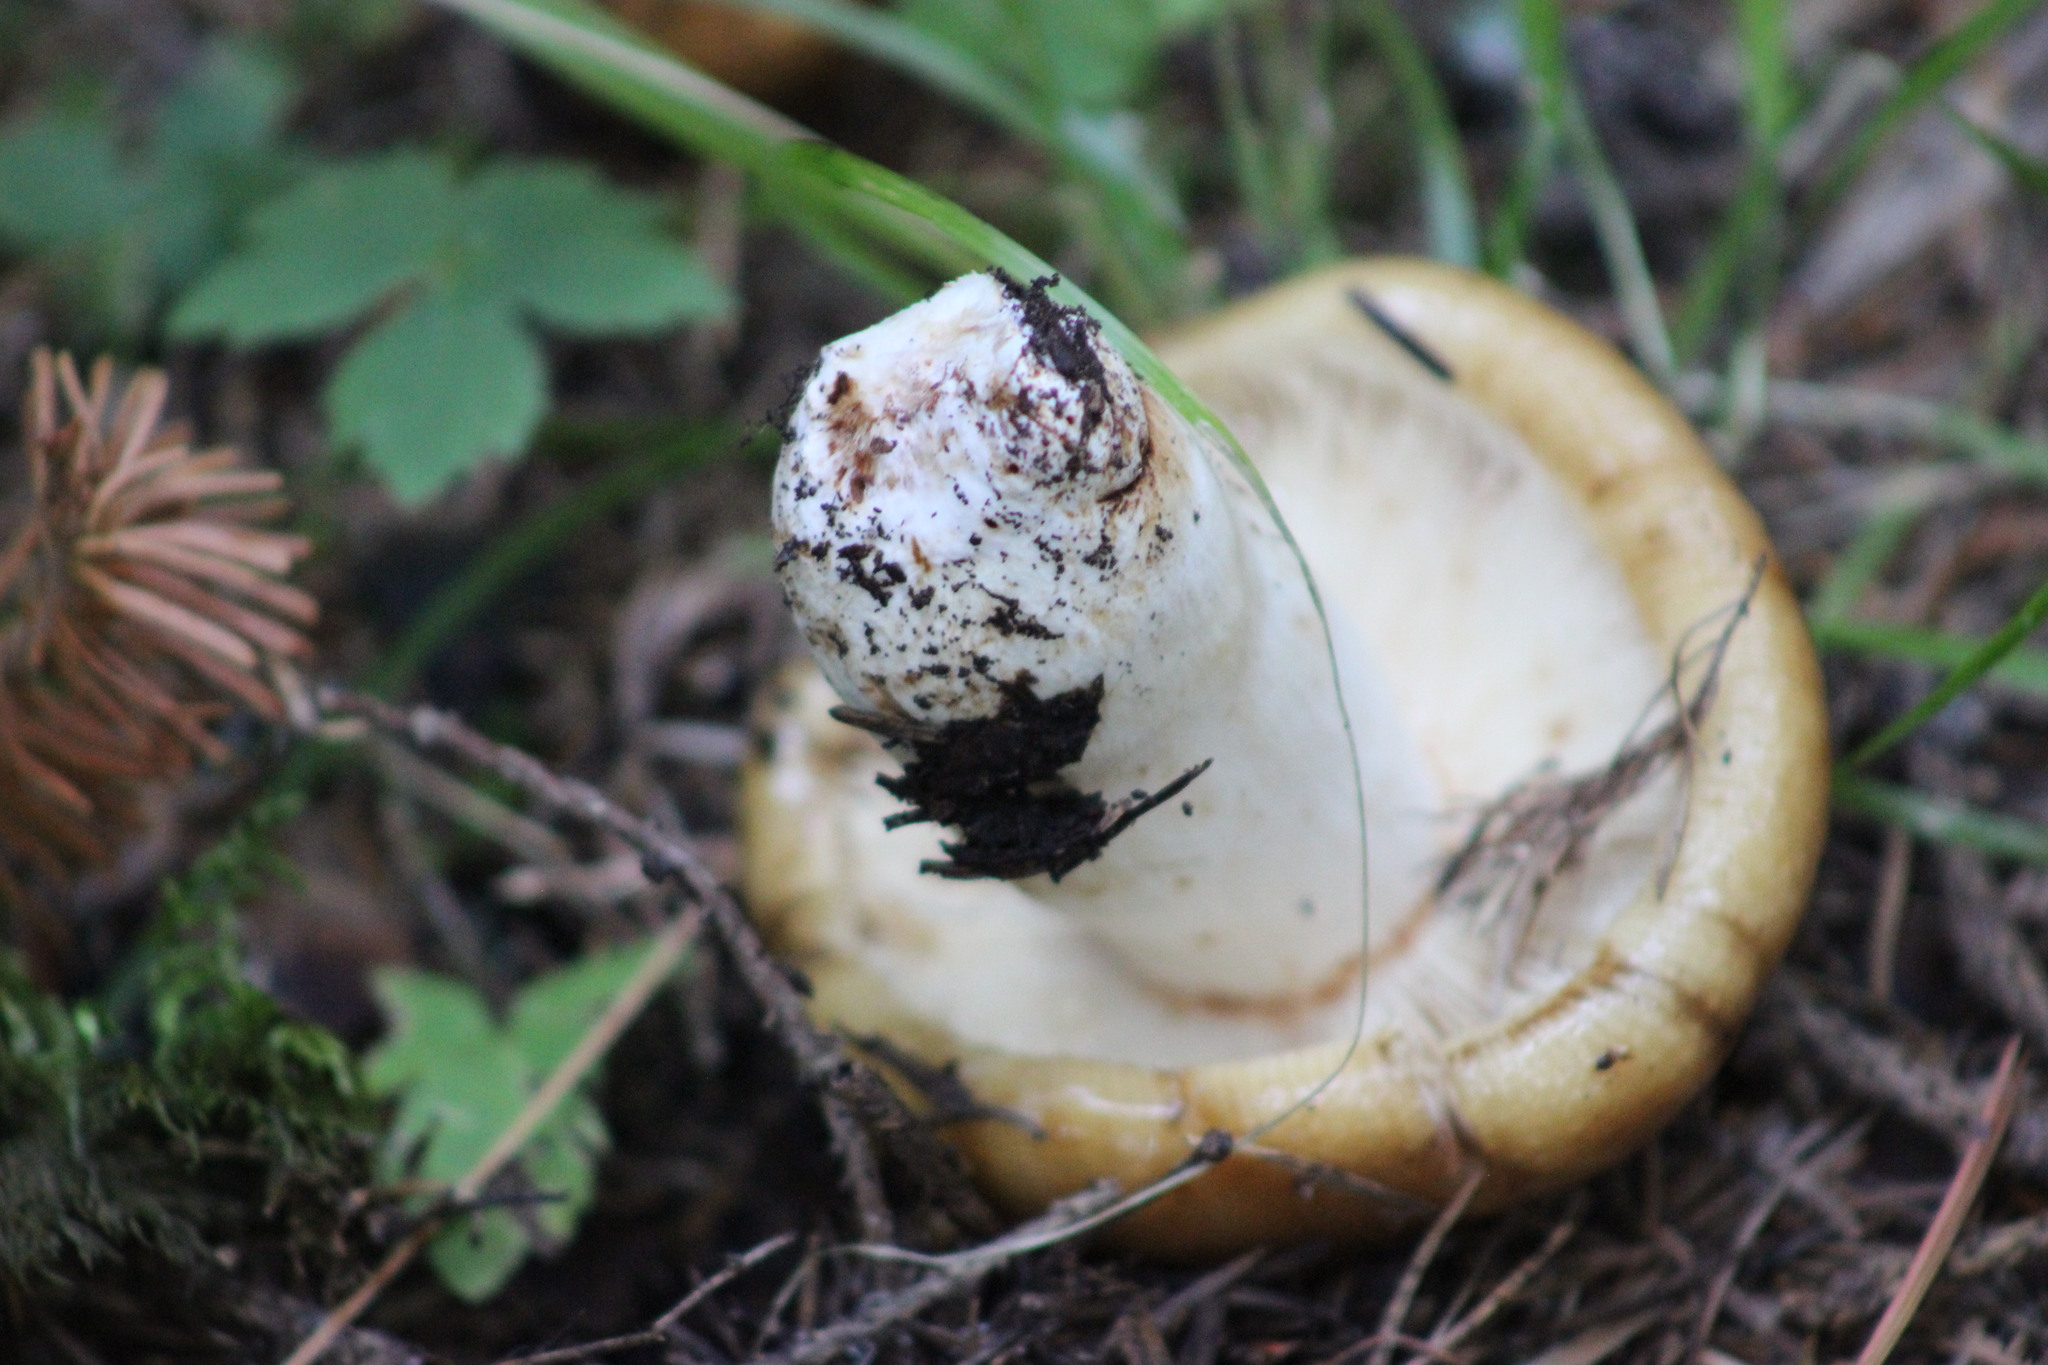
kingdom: Fungi
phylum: Basidiomycota
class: Agaricomycetes
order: Russulales
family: Russulaceae
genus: Russula
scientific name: Russula foetens
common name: Foetid russula
